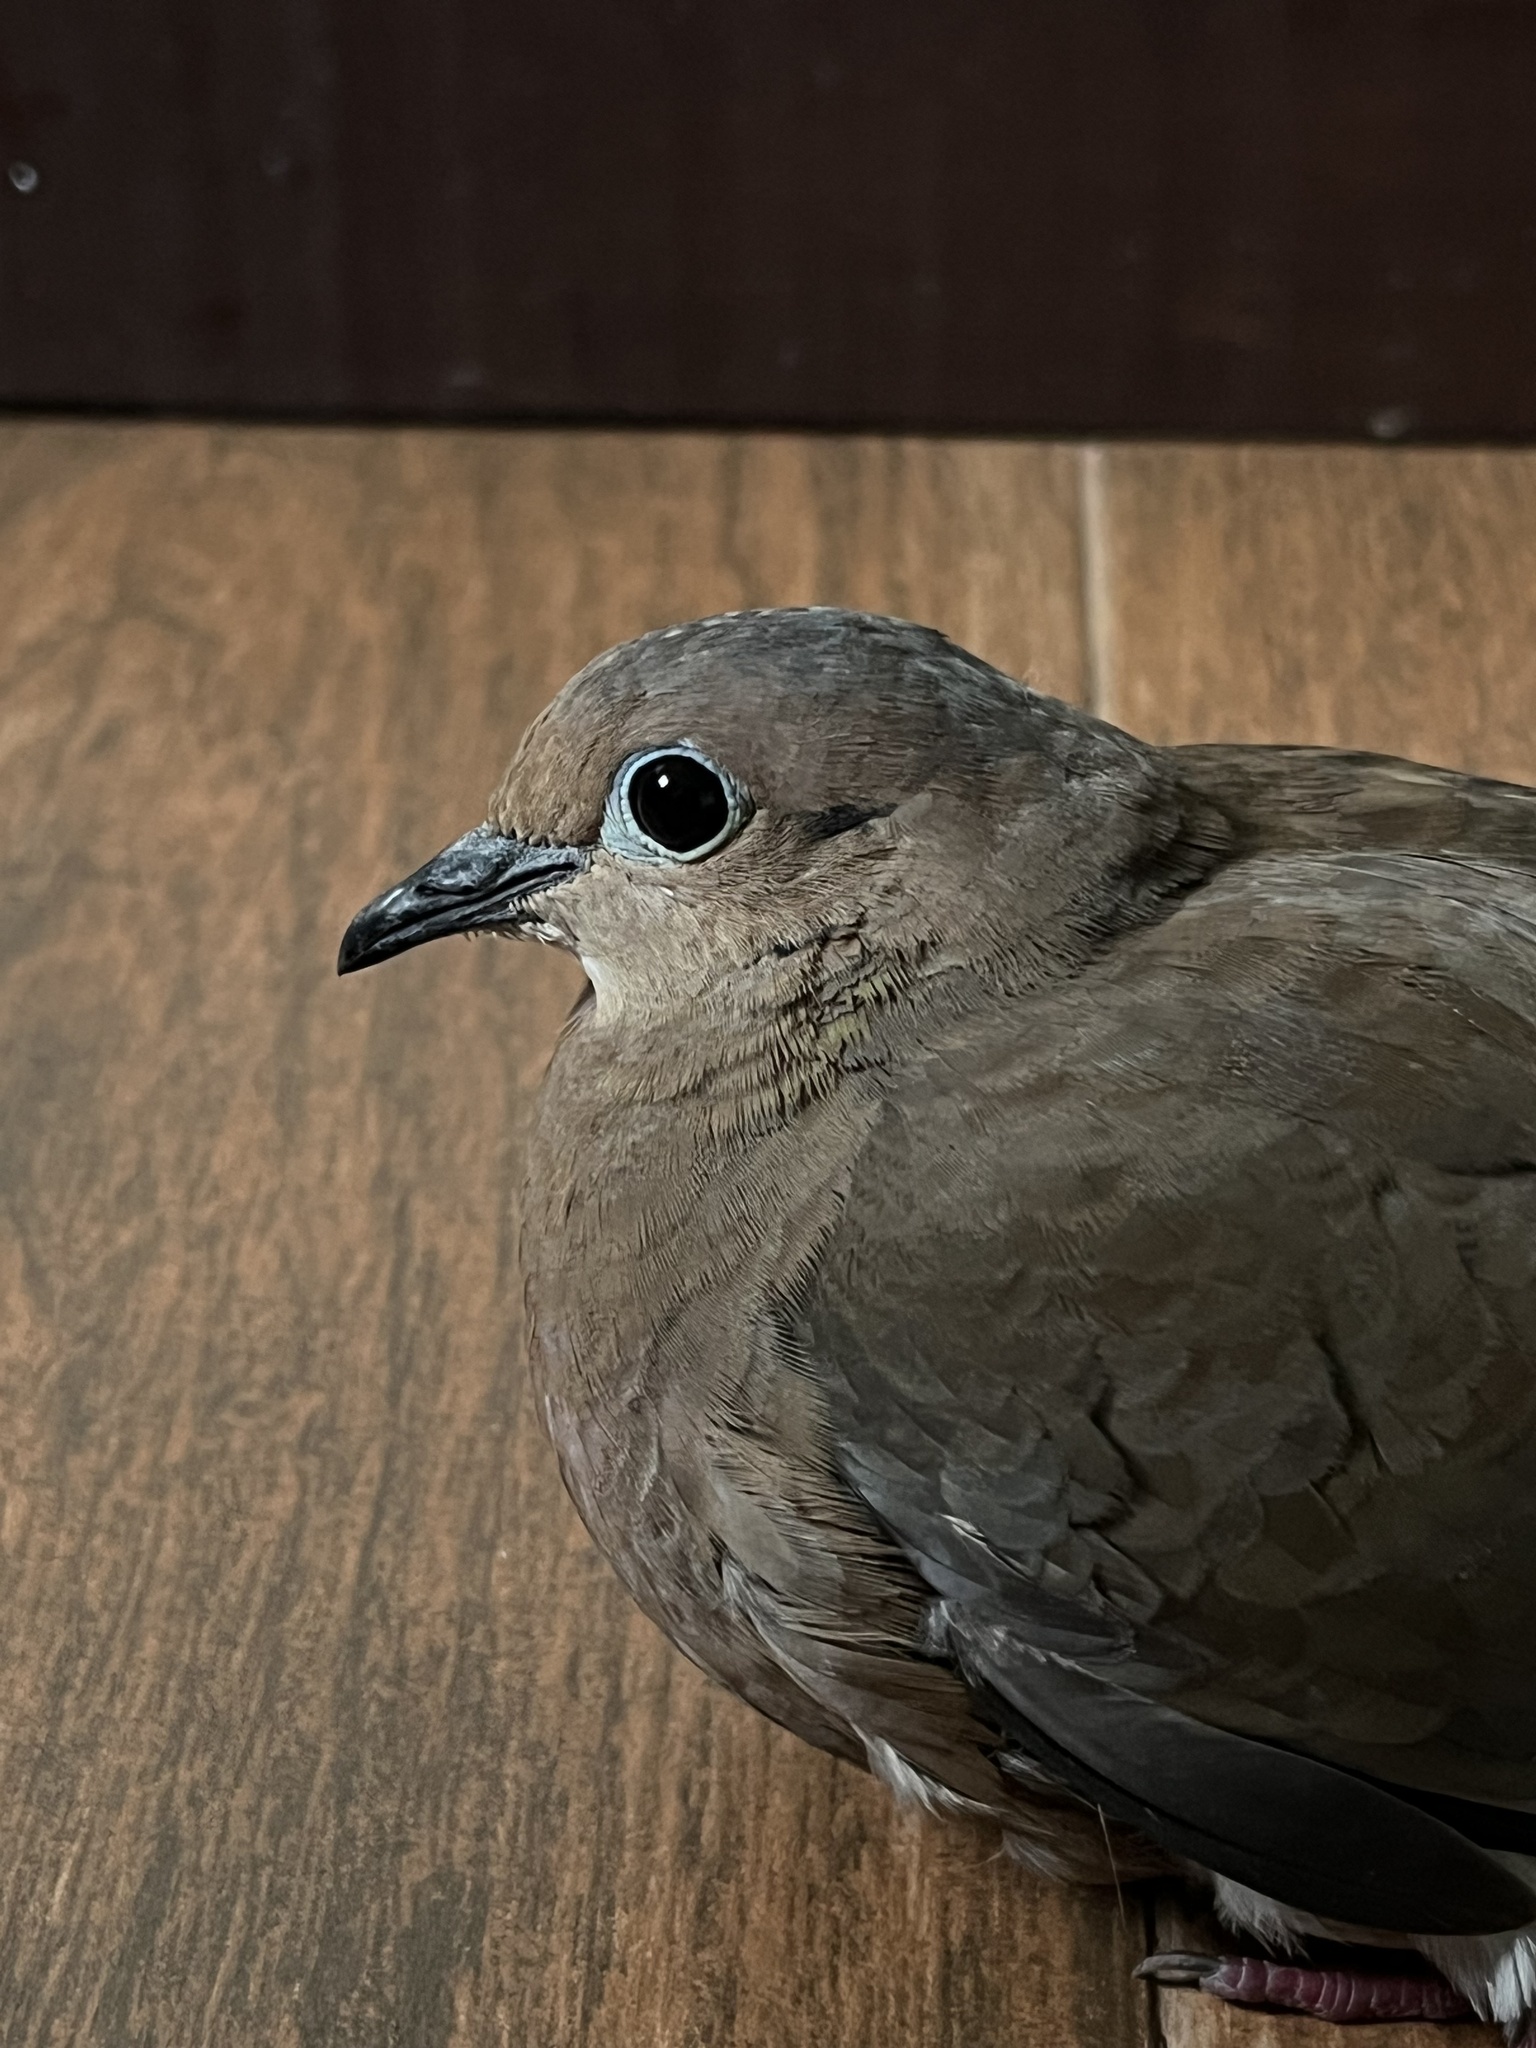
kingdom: Animalia
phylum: Chordata
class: Aves
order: Columbiformes
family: Columbidae
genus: Zenaida
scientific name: Zenaida auriculata
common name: Eared dove
